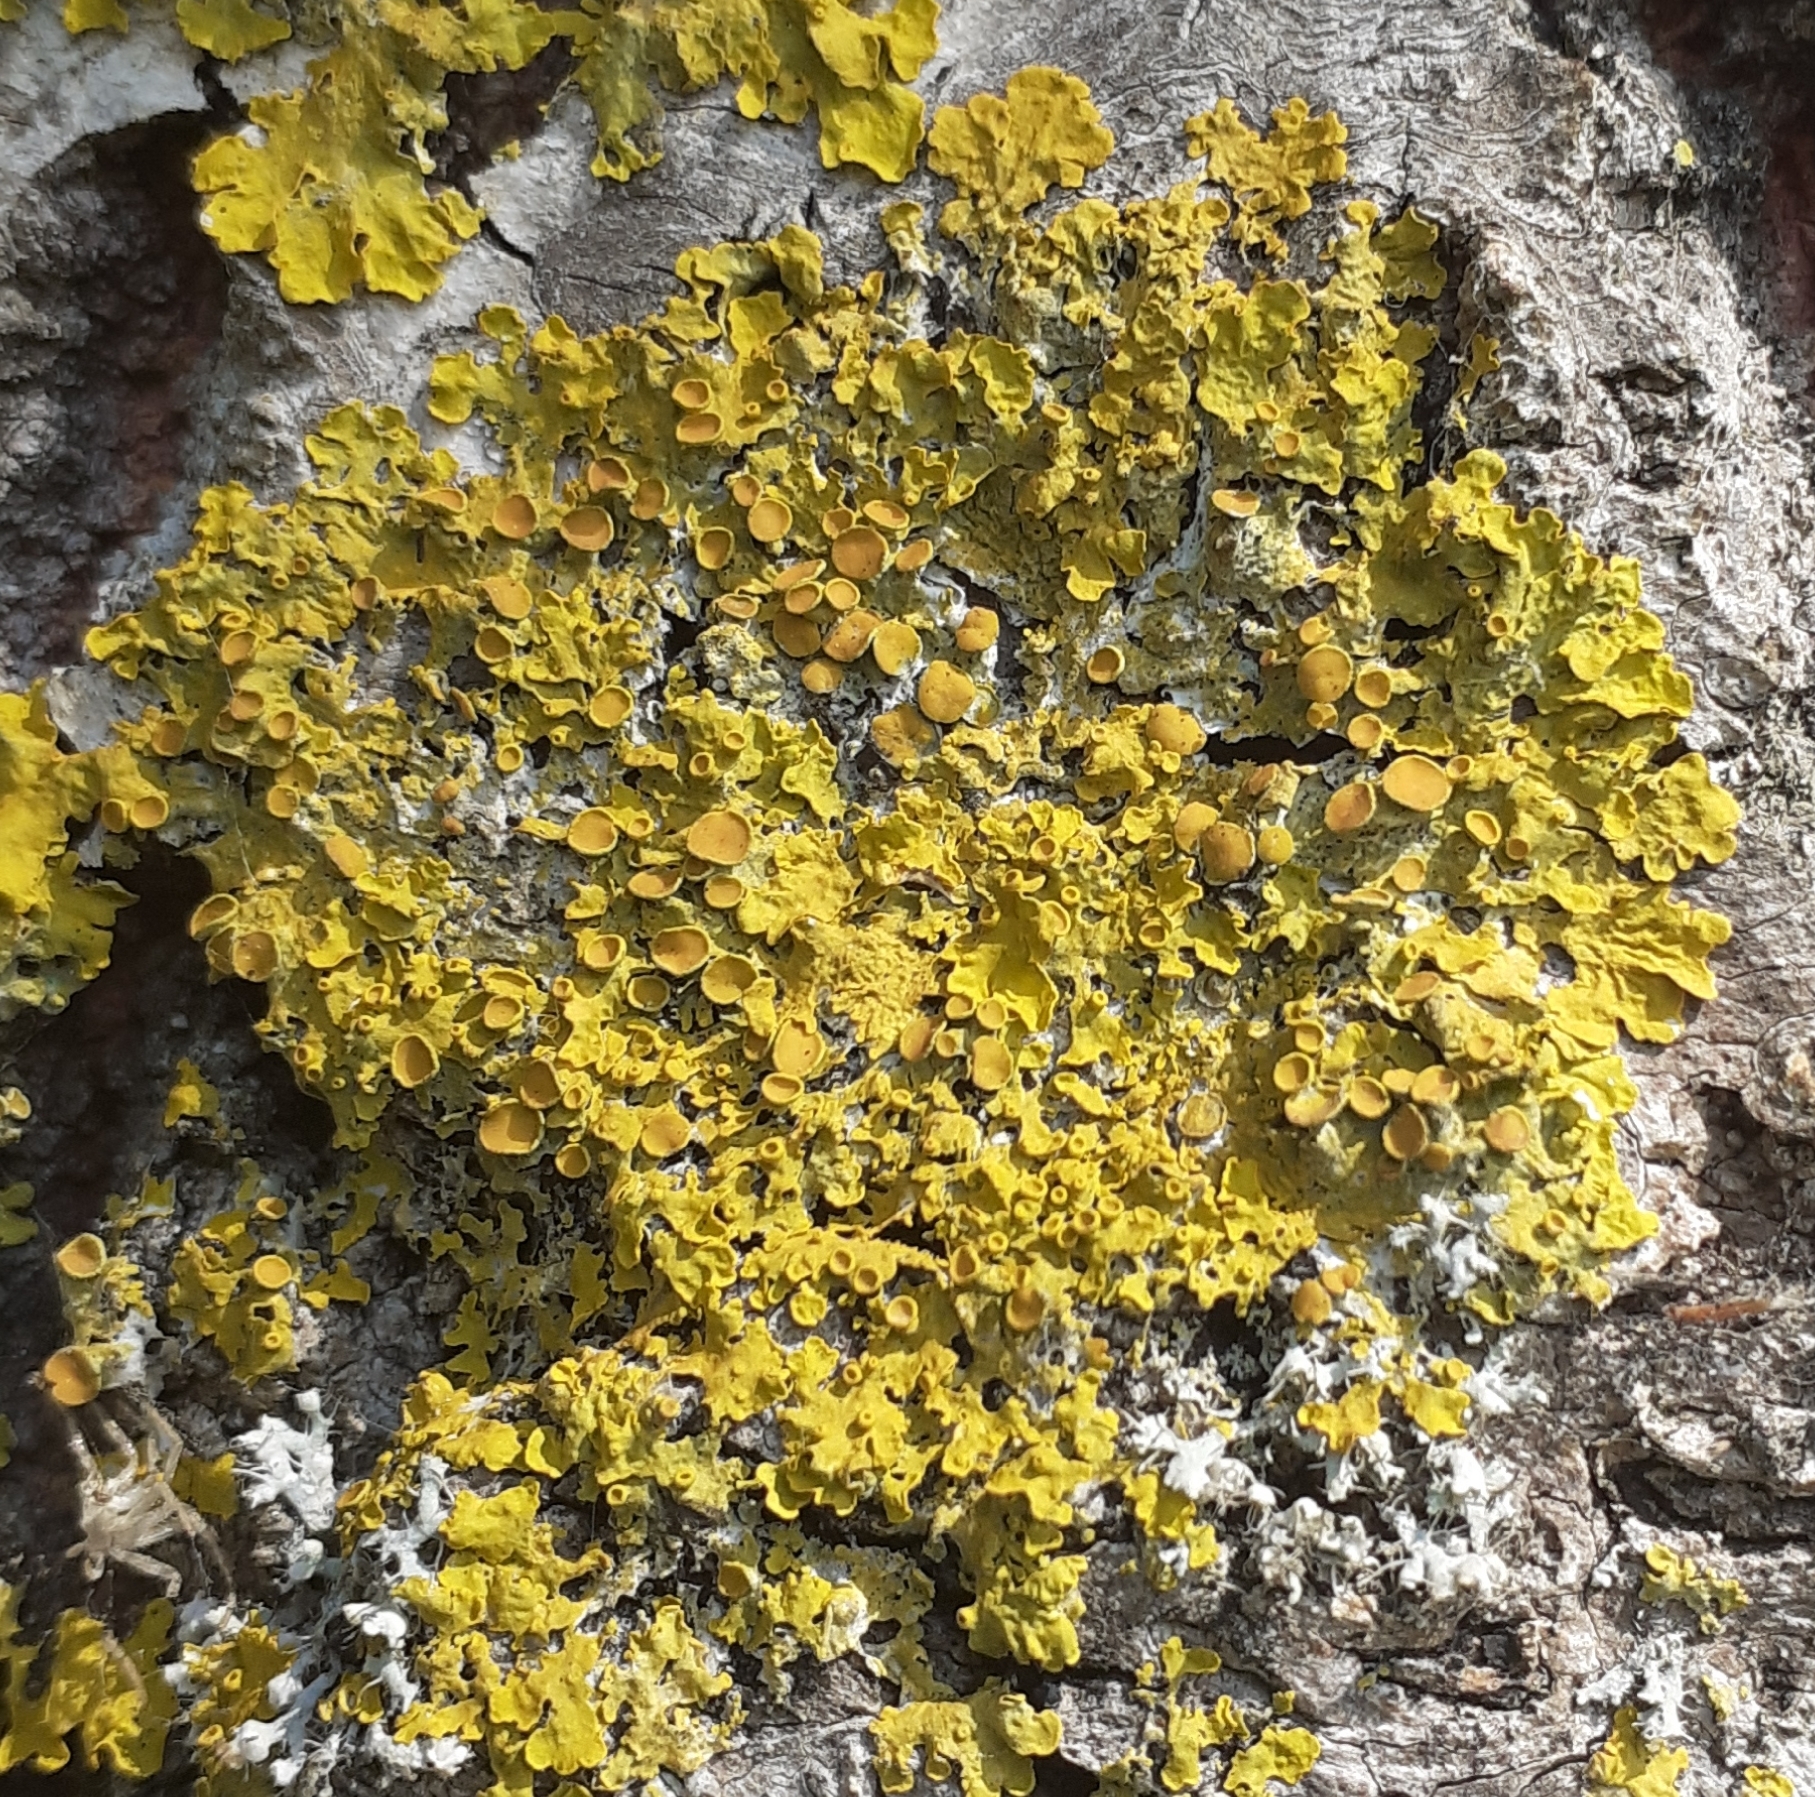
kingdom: Fungi
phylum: Ascomycota
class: Lecanoromycetes
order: Teloschistales
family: Teloschistaceae
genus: Xanthoria
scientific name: Xanthoria parietina
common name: Common orange lichen
